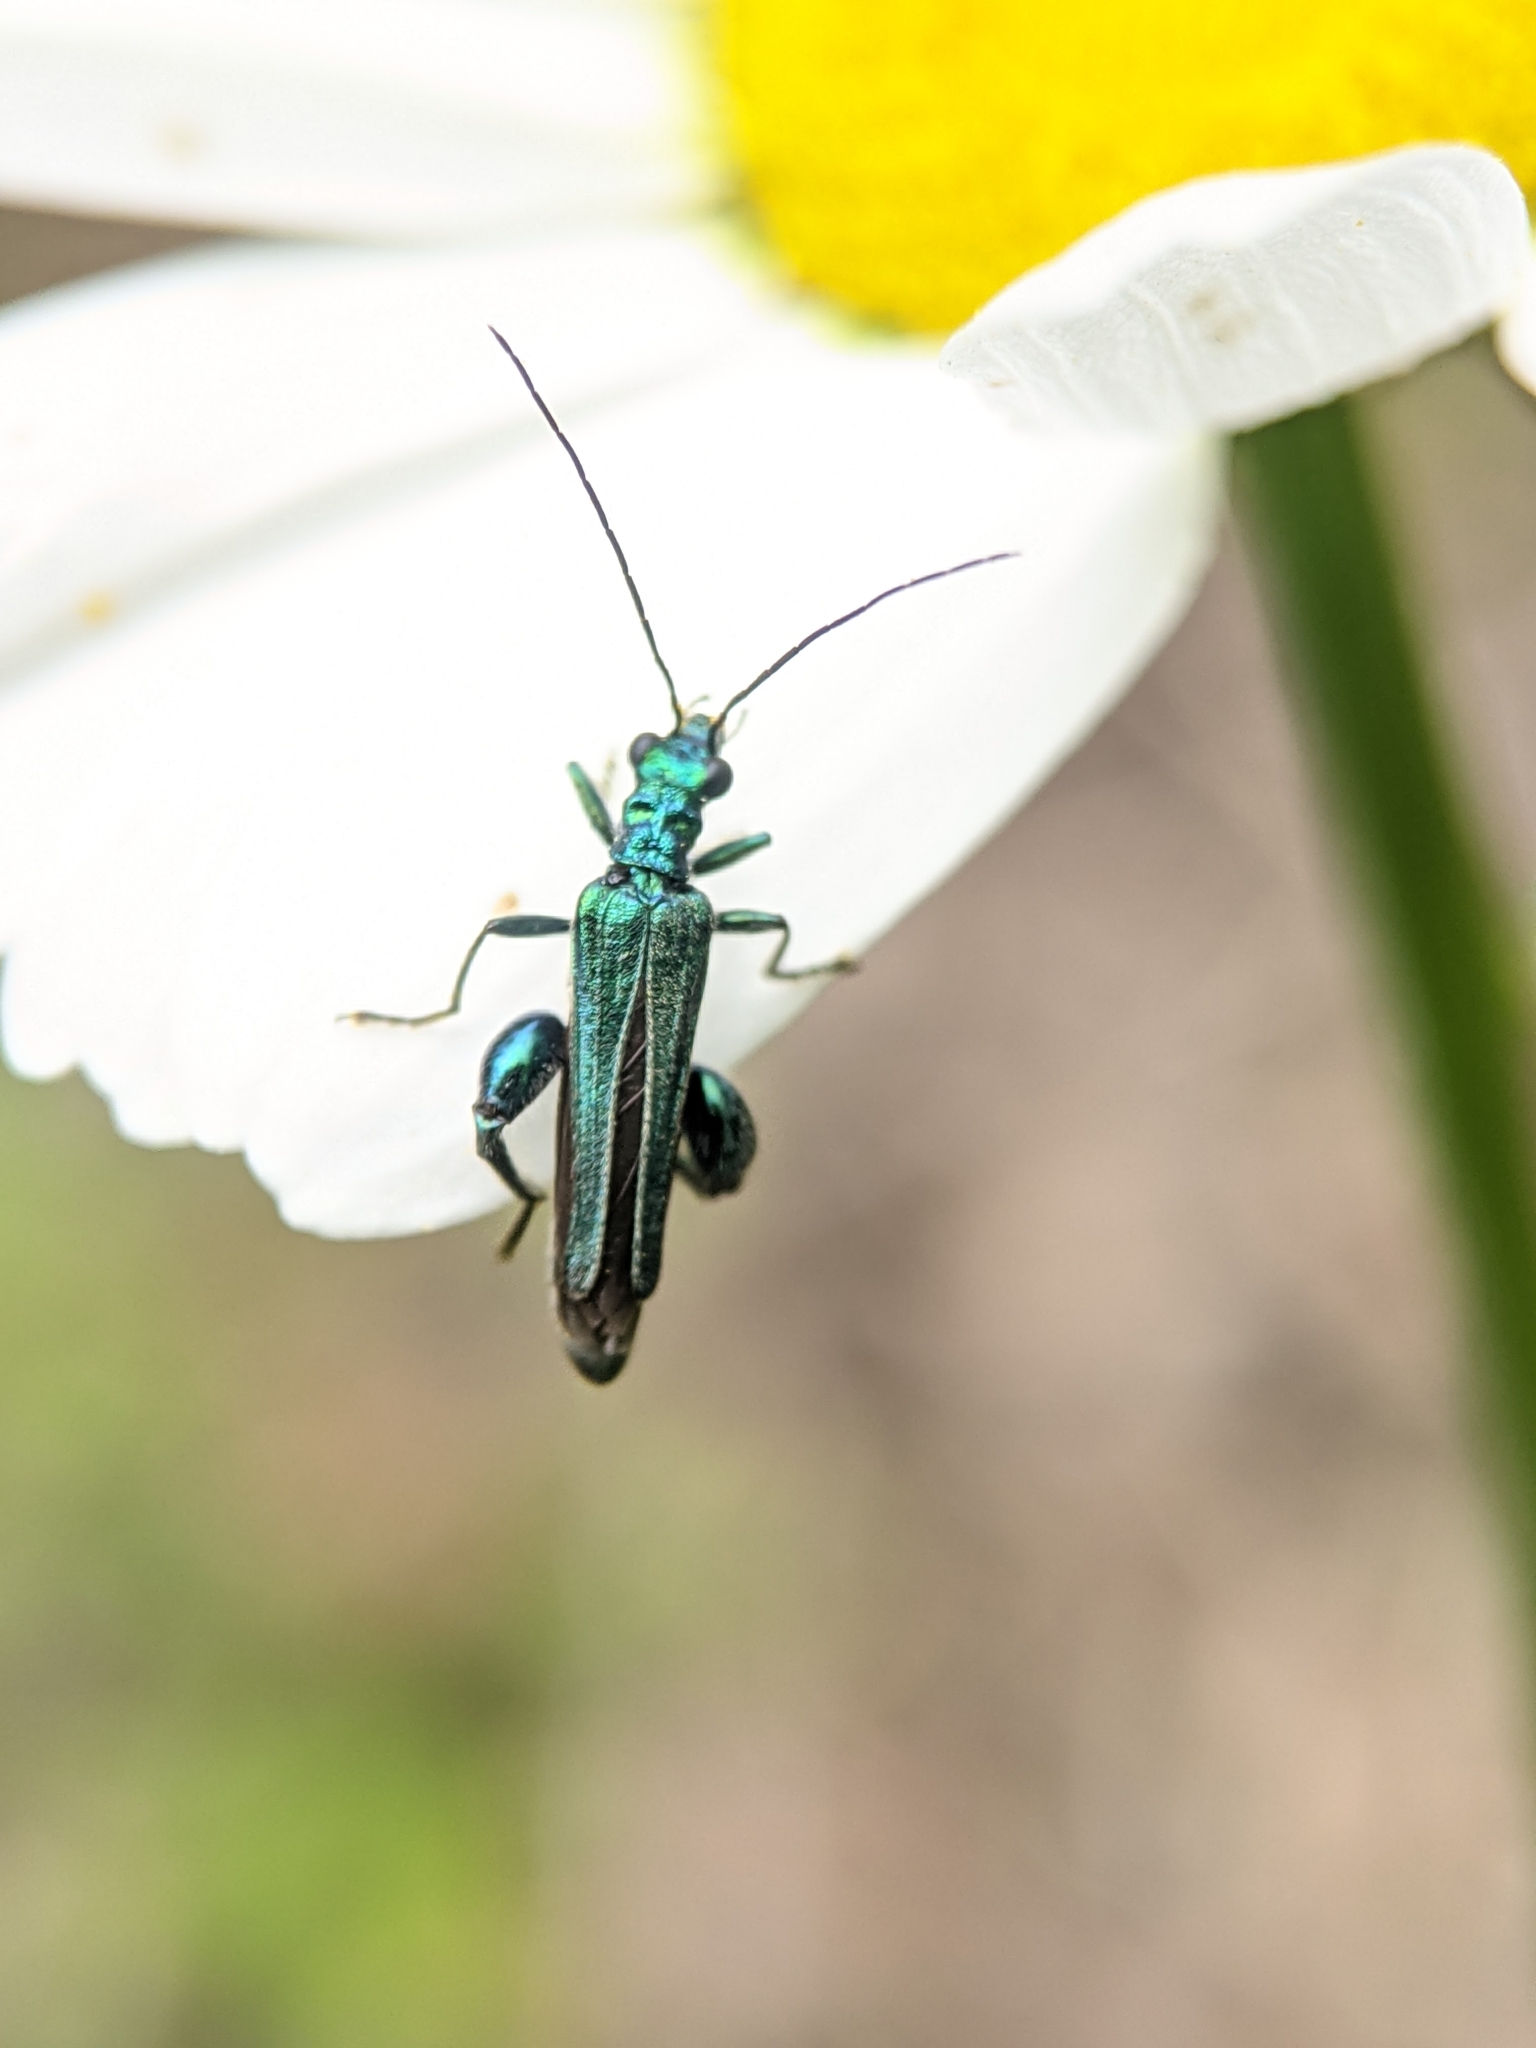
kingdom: Animalia
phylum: Arthropoda
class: Insecta
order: Coleoptera
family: Oedemeridae
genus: Oedemera
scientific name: Oedemera nobilis
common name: Swollen-thighed beetle
